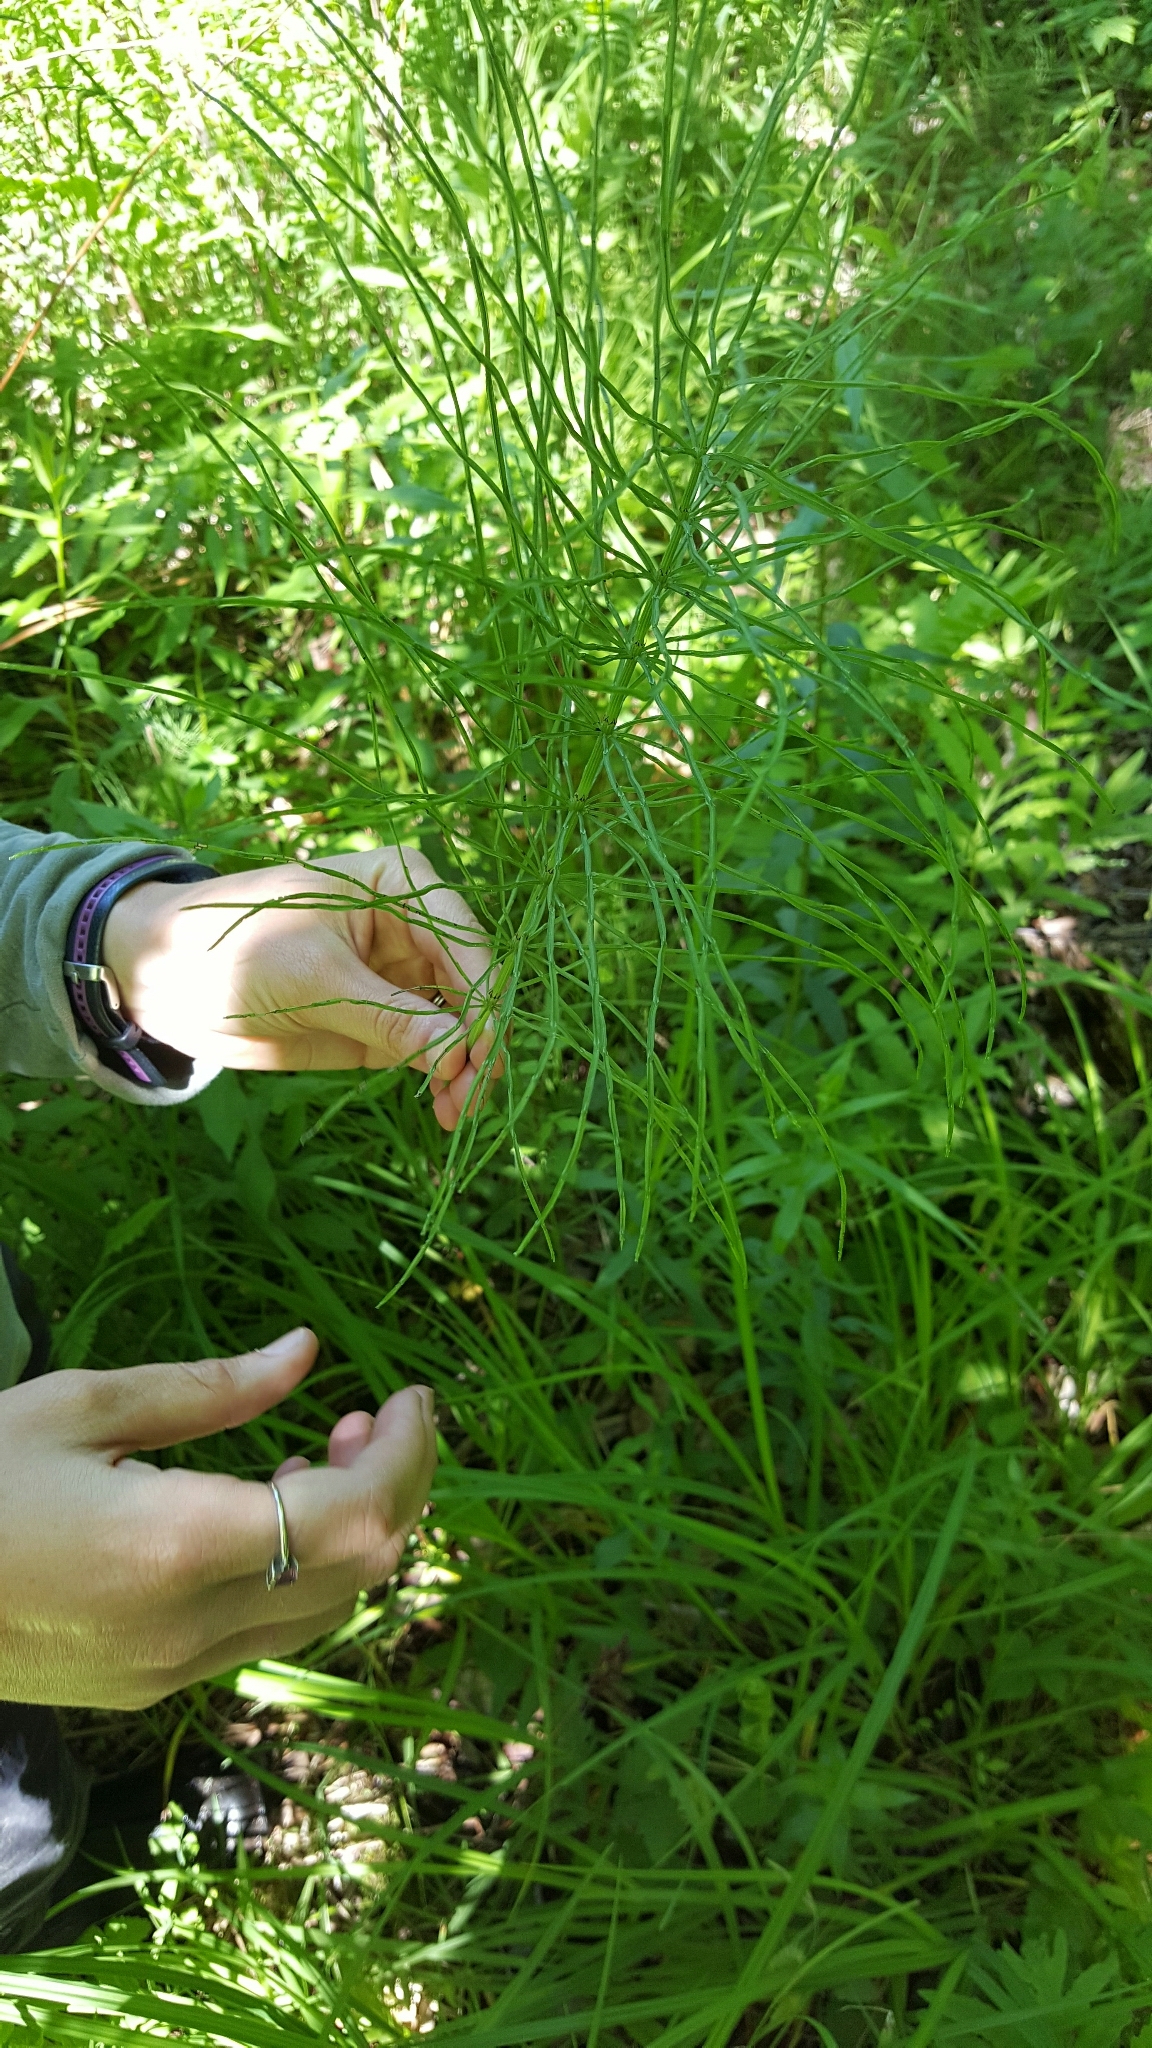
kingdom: Plantae
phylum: Tracheophyta
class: Polypodiopsida
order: Equisetales
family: Equisetaceae
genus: Equisetum
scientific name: Equisetum arvense
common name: Field horsetail
